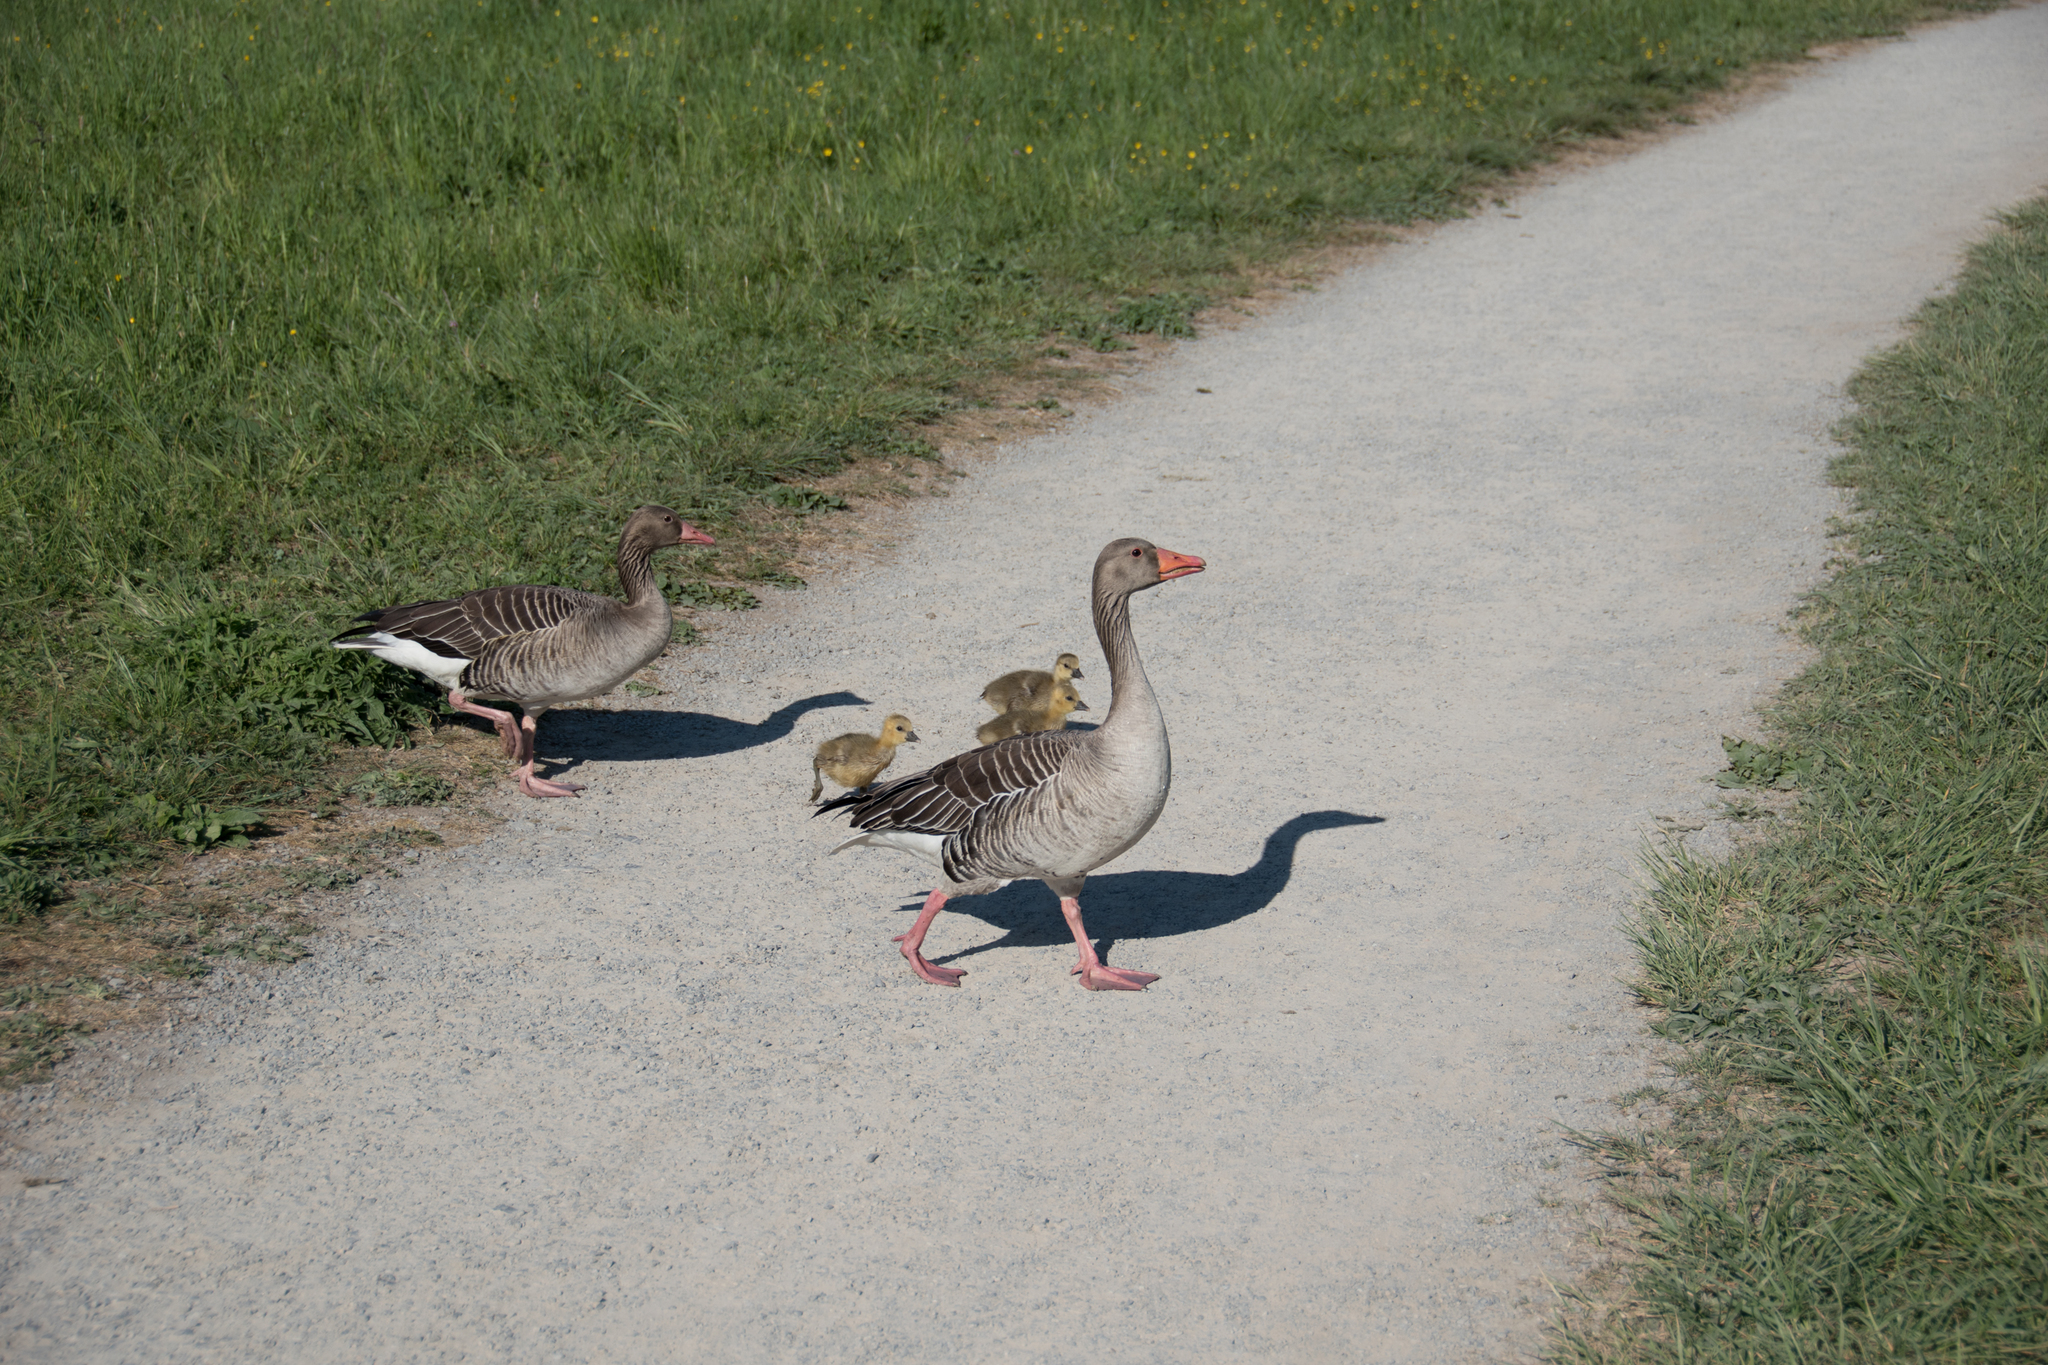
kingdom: Animalia
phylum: Chordata
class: Aves
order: Anseriformes
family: Anatidae
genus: Anser
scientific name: Anser anser
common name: Greylag goose
